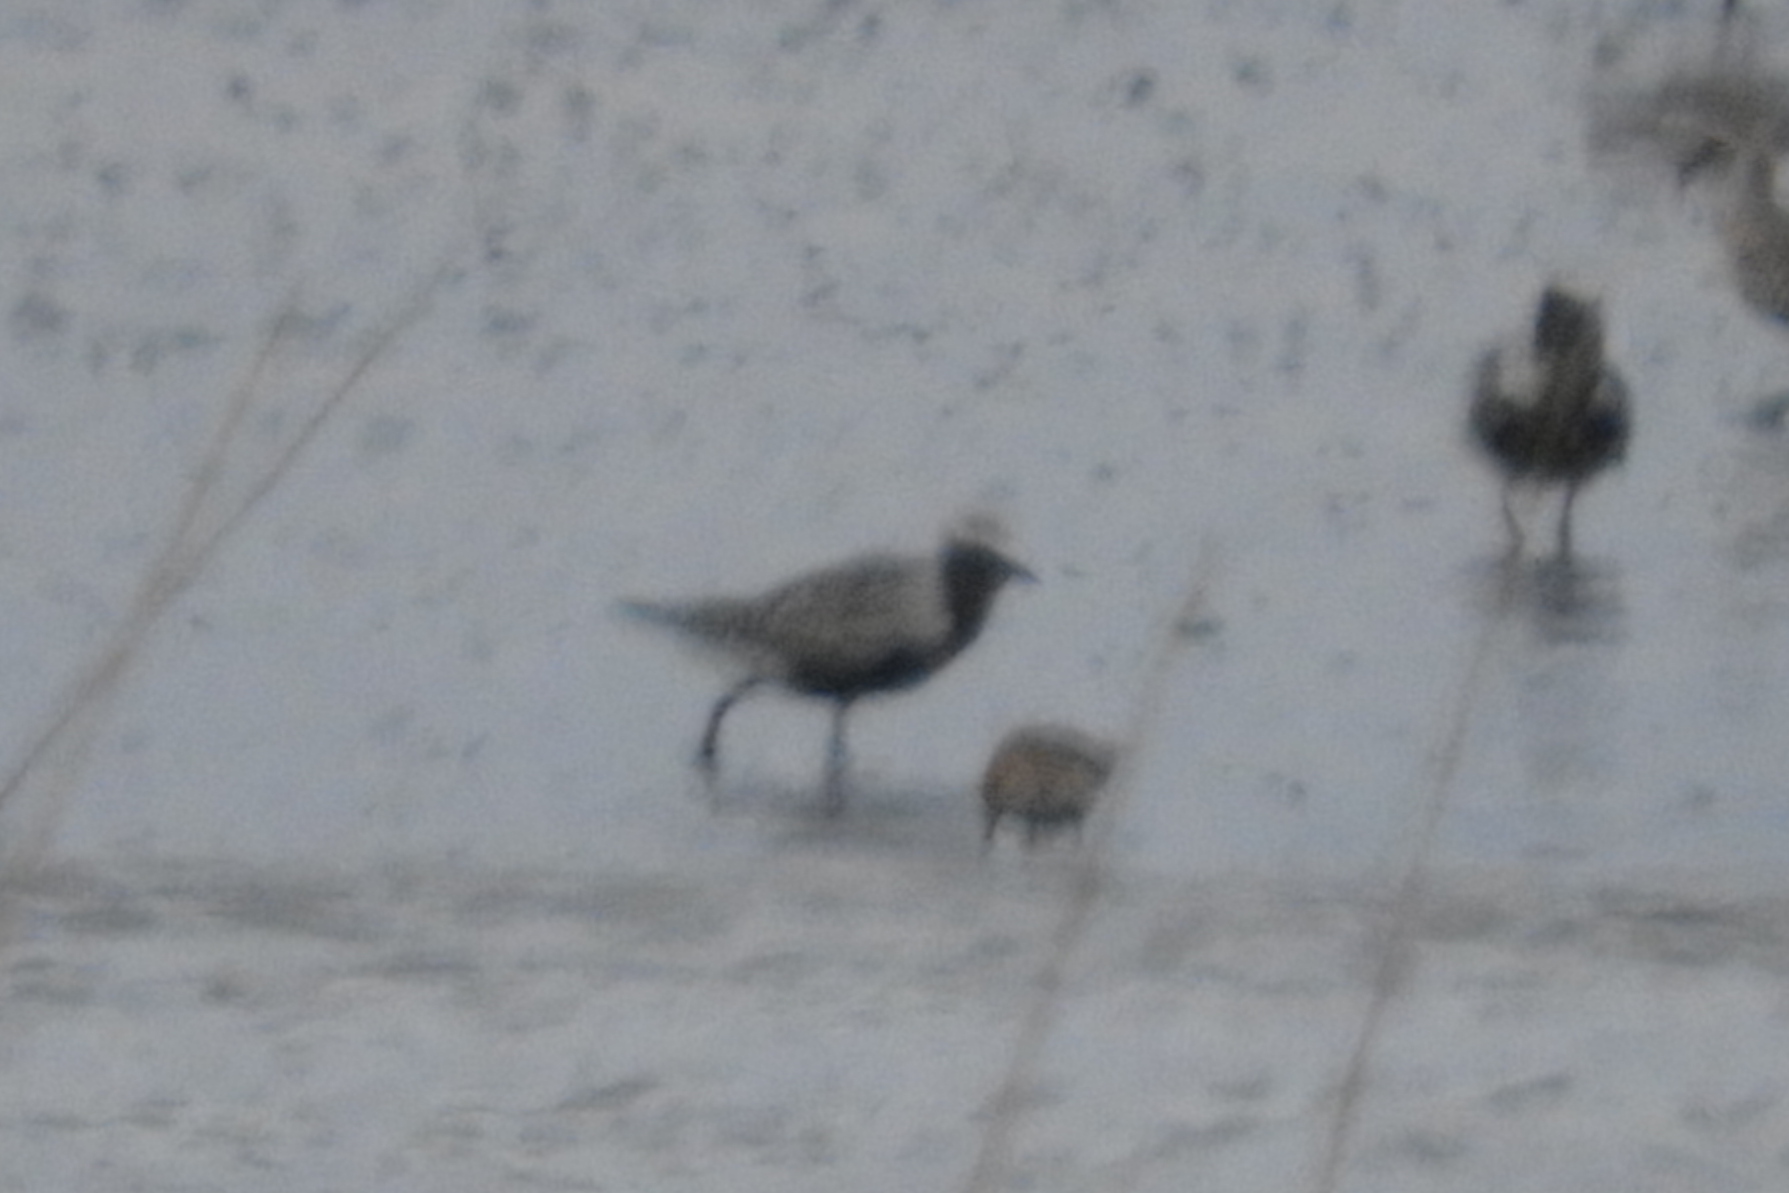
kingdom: Animalia
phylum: Chordata
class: Aves
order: Charadriiformes
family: Charadriidae
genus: Pluvialis
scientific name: Pluvialis squatarola
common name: Grey plover
